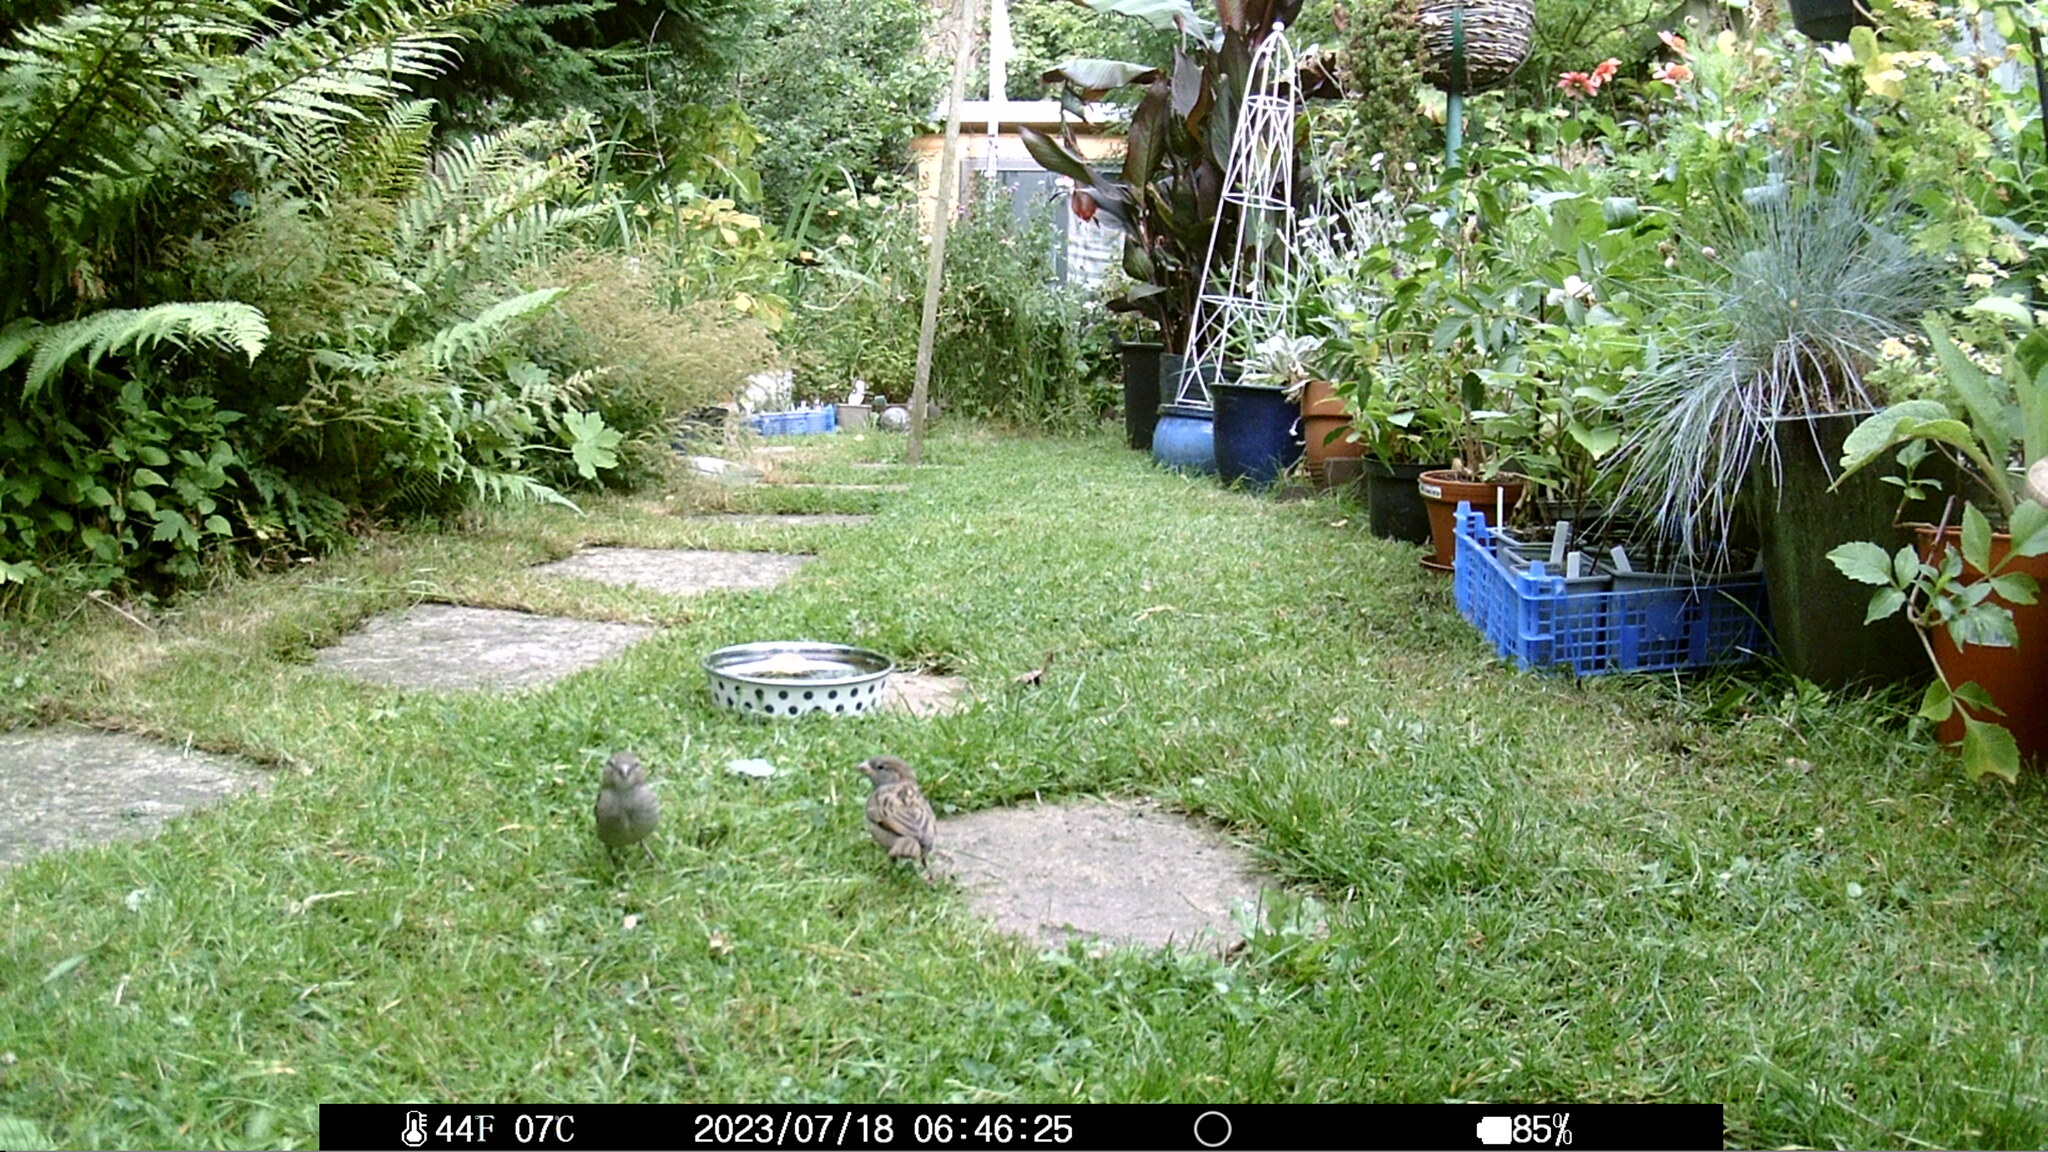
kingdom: Animalia
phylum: Chordata
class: Aves
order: Passeriformes
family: Passeridae
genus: Passer
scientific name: Passer domesticus
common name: House sparrow
